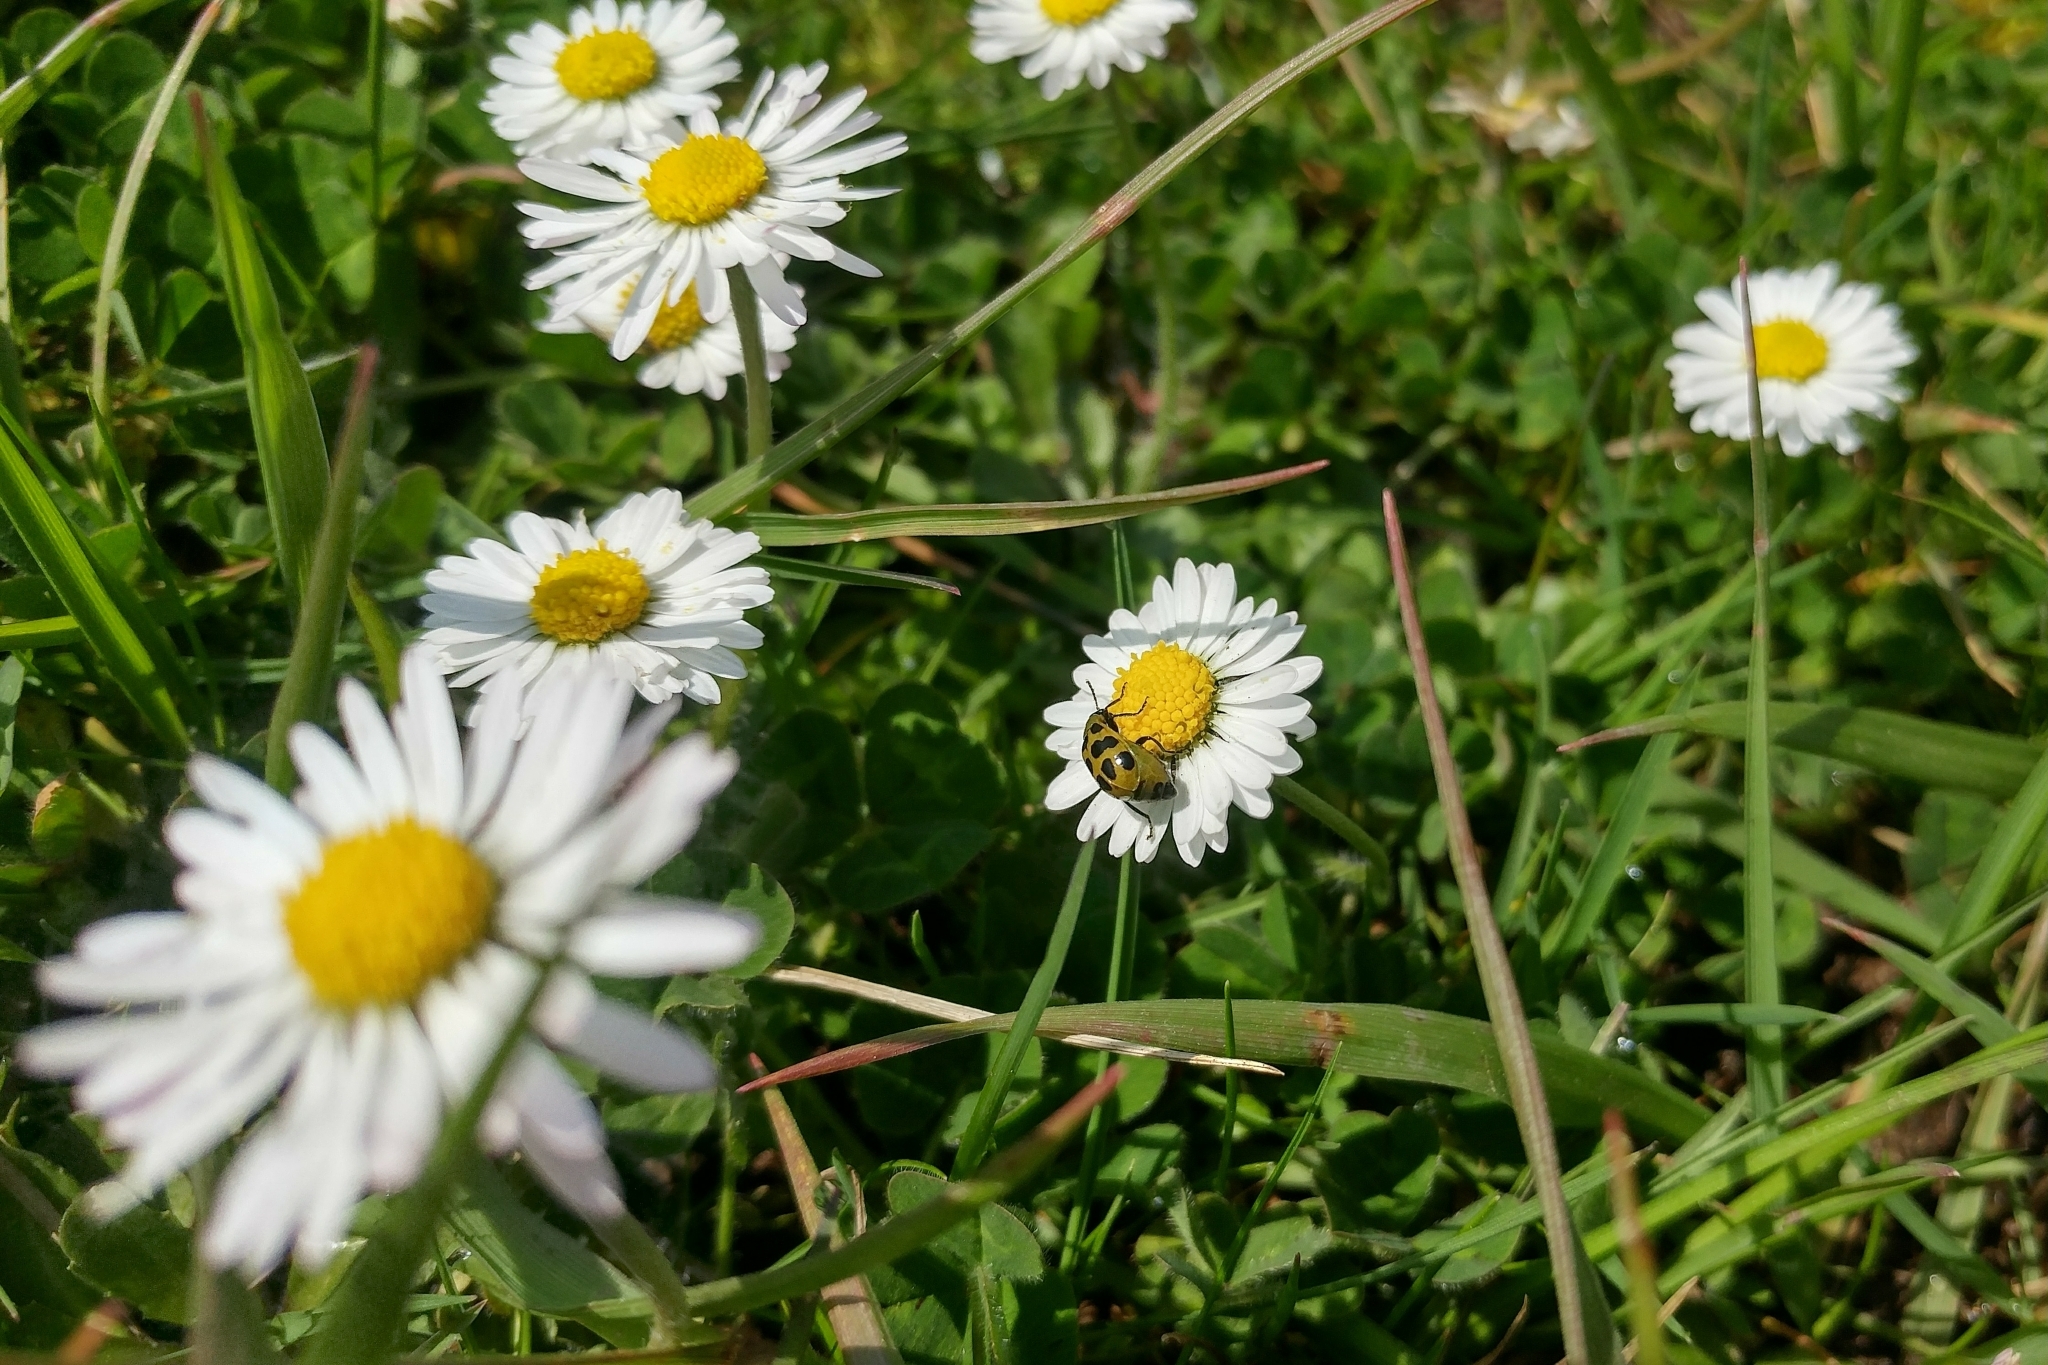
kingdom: Plantae
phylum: Tracheophyta
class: Magnoliopsida
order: Asterales
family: Asteraceae
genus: Bellis
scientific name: Bellis perennis
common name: Lawndaisy
